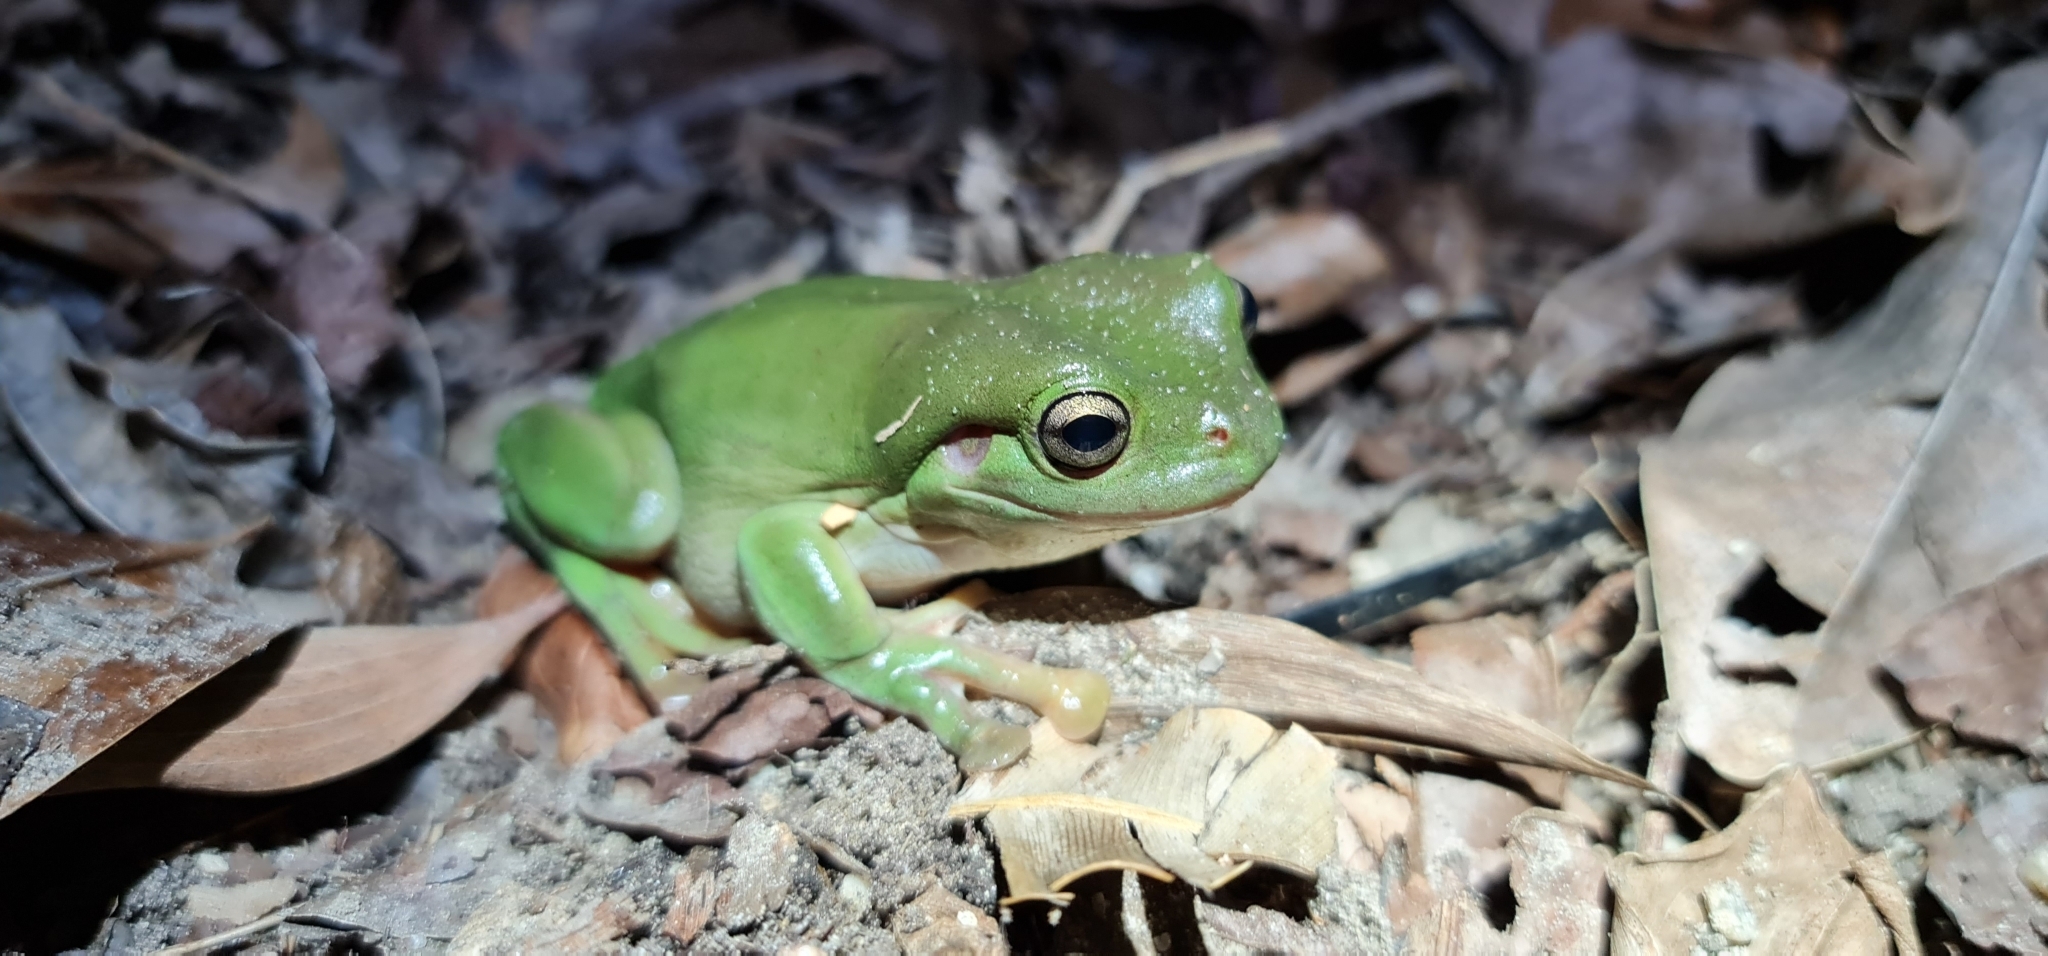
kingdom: Animalia
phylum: Chordata
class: Amphibia
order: Anura
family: Pelodryadidae
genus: Ranoidea
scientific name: Ranoidea caerulea
